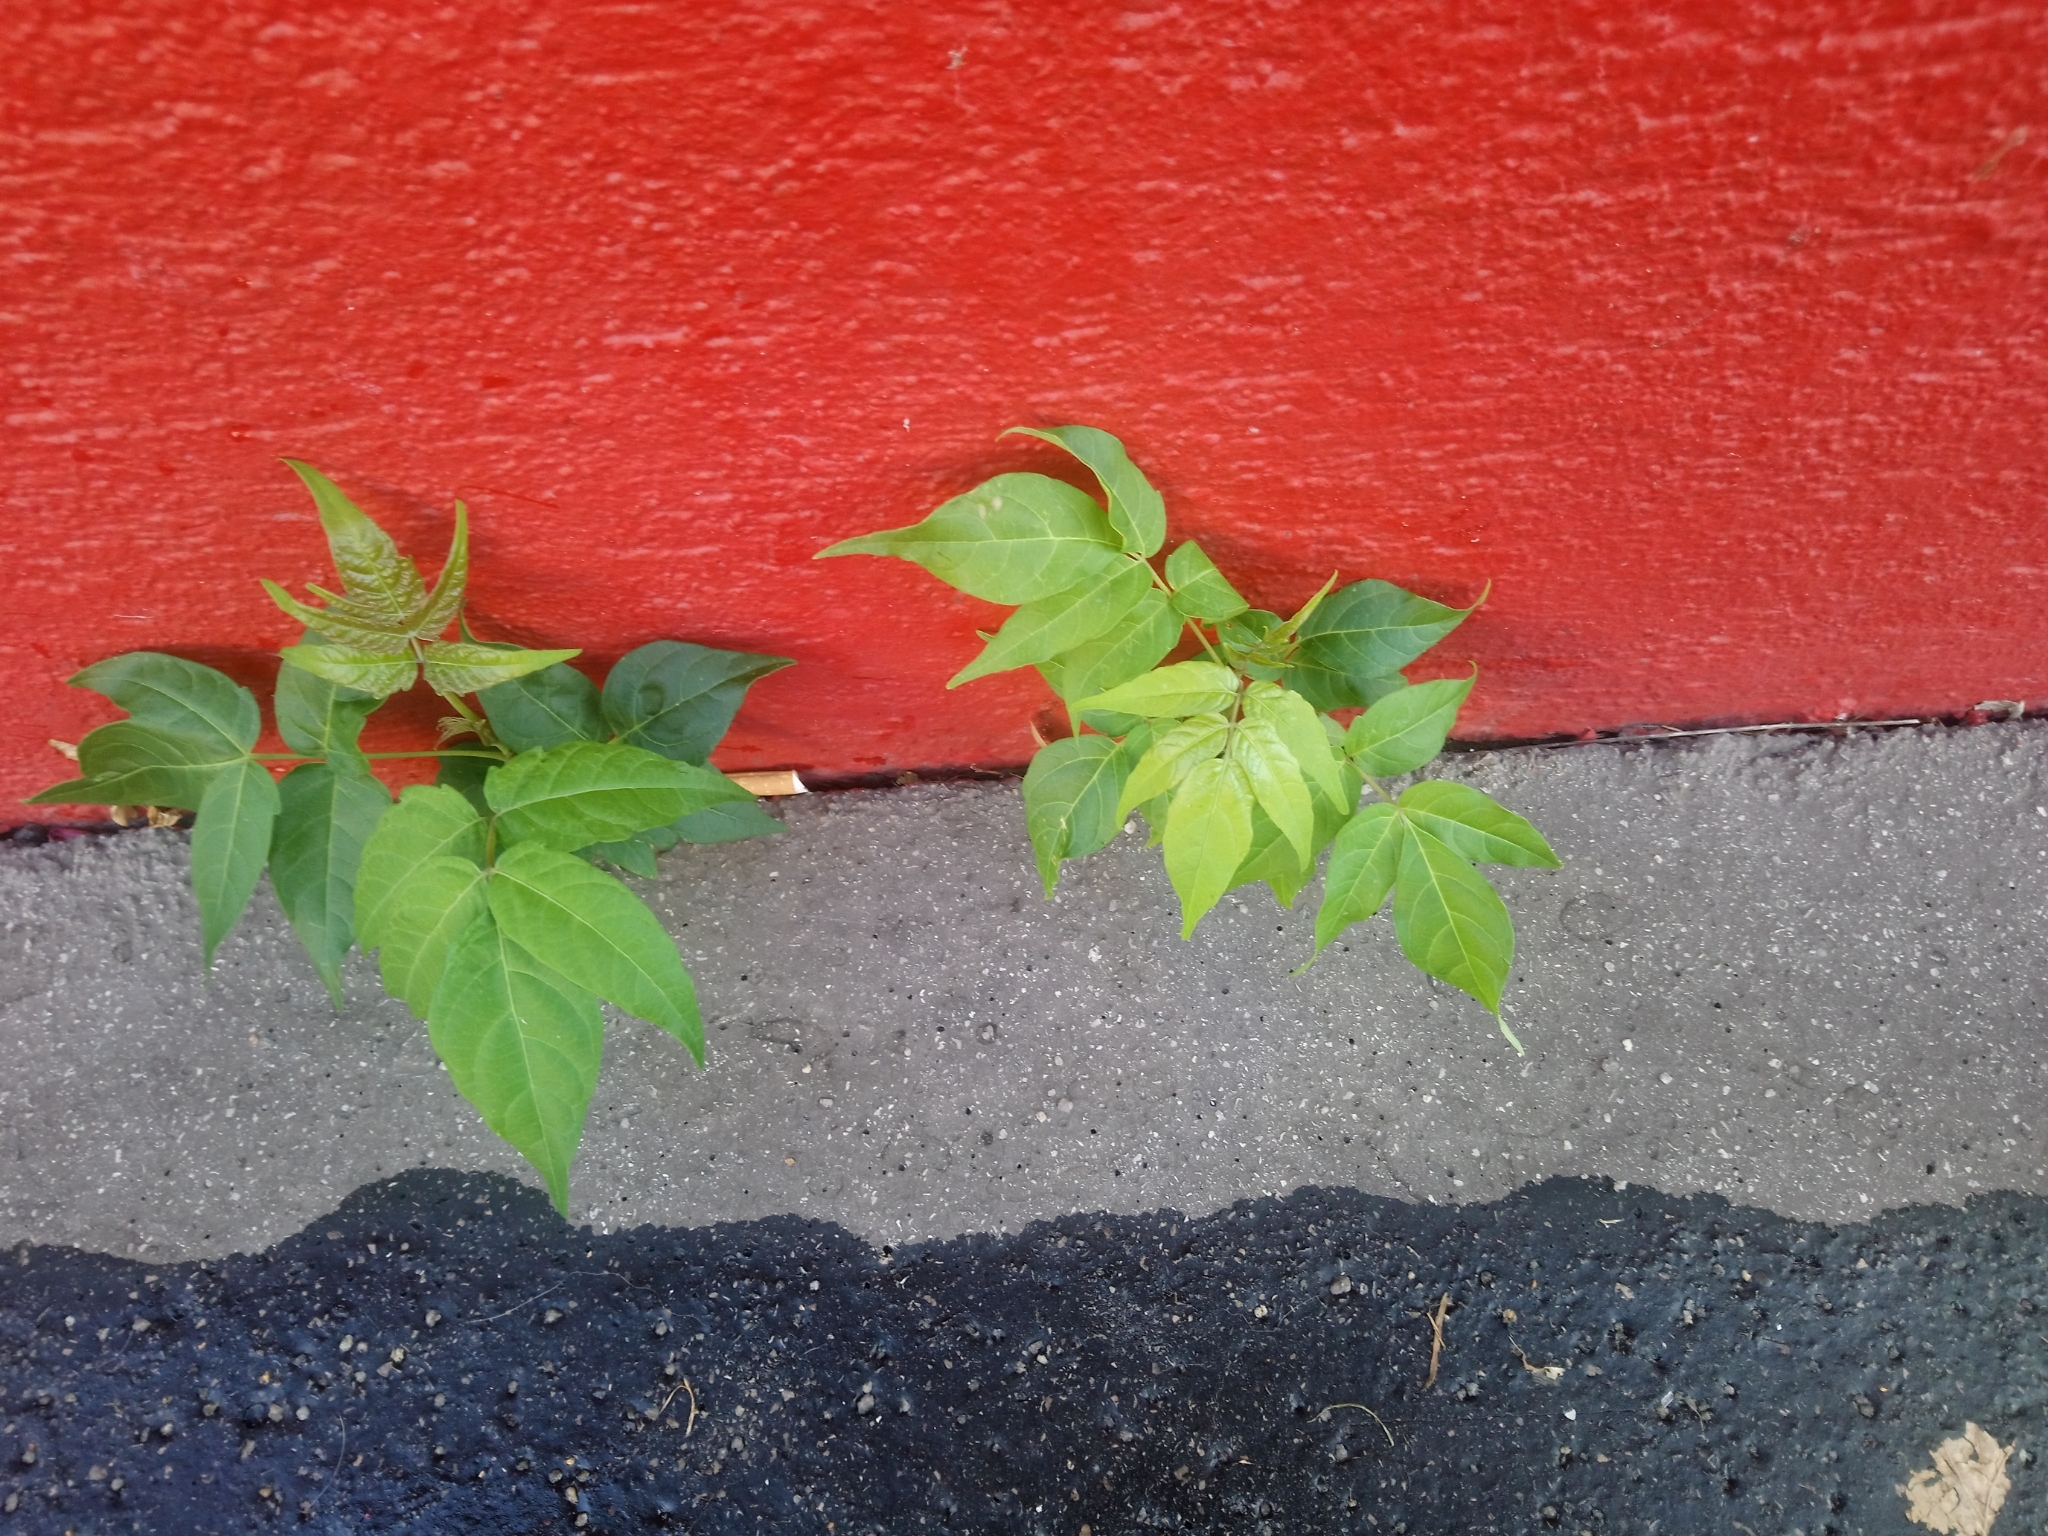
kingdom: Plantae
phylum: Tracheophyta
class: Magnoliopsida
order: Sapindales
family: Simaroubaceae
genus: Ailanthus
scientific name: Ailanthus altissima
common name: Tree-of-heaven
